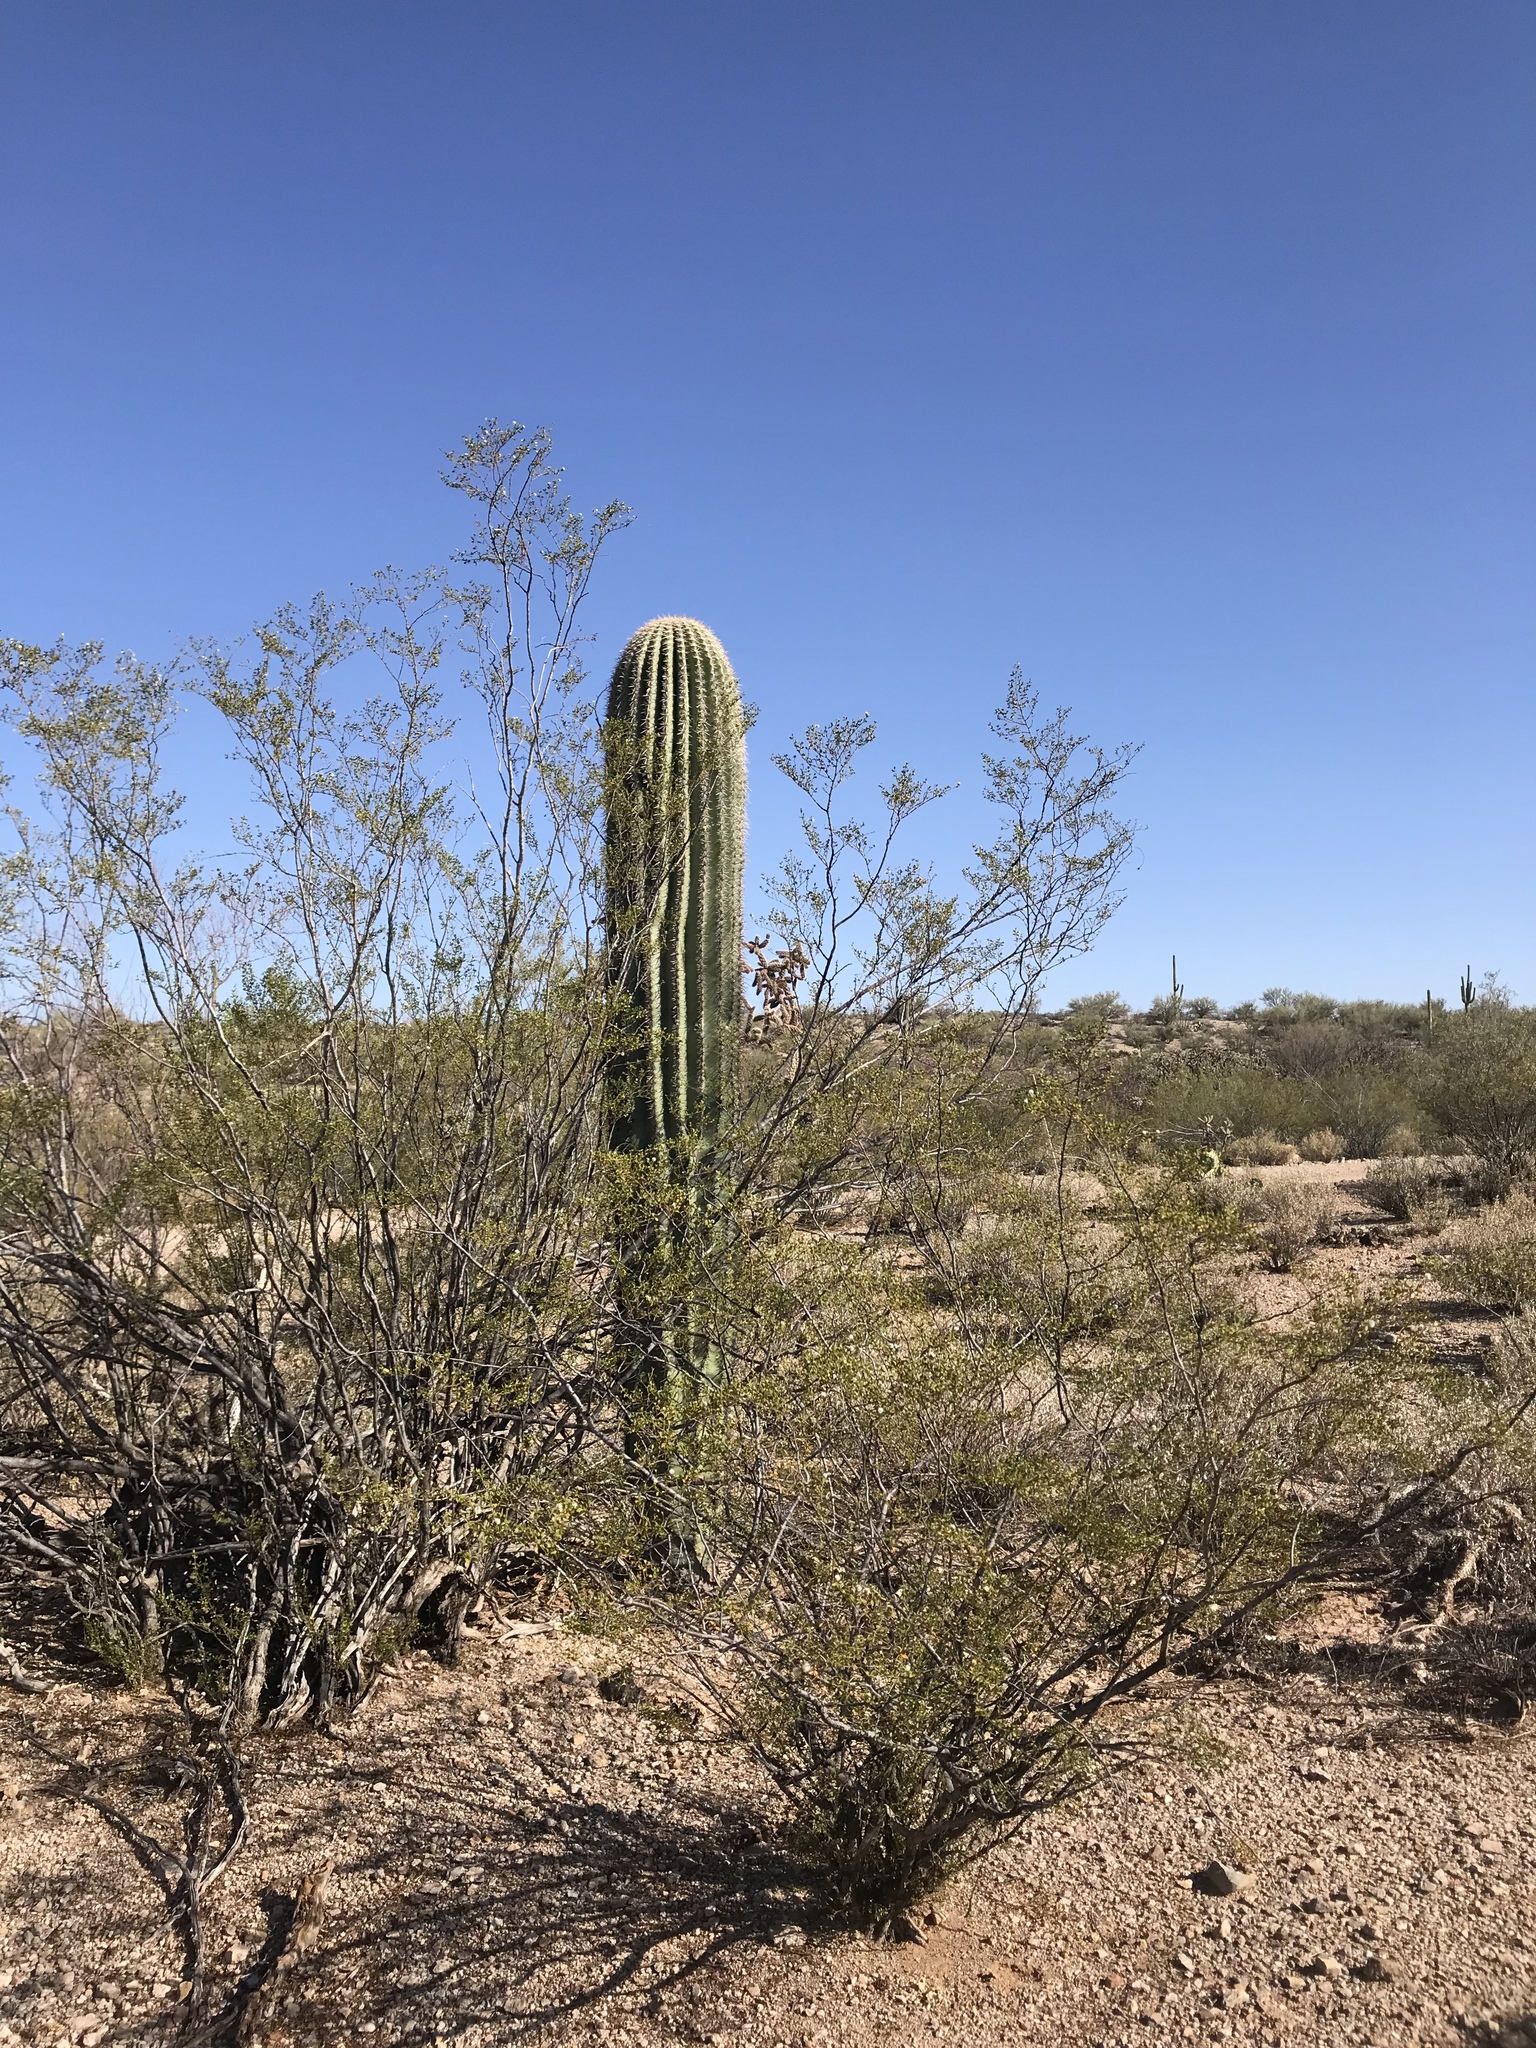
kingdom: Plantae
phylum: Tracheophyta
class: Magnoliopsida
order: Caryophyllales
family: Cactaceae
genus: Carnegiea
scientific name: Carnegiea gigantea
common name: Saguaro
